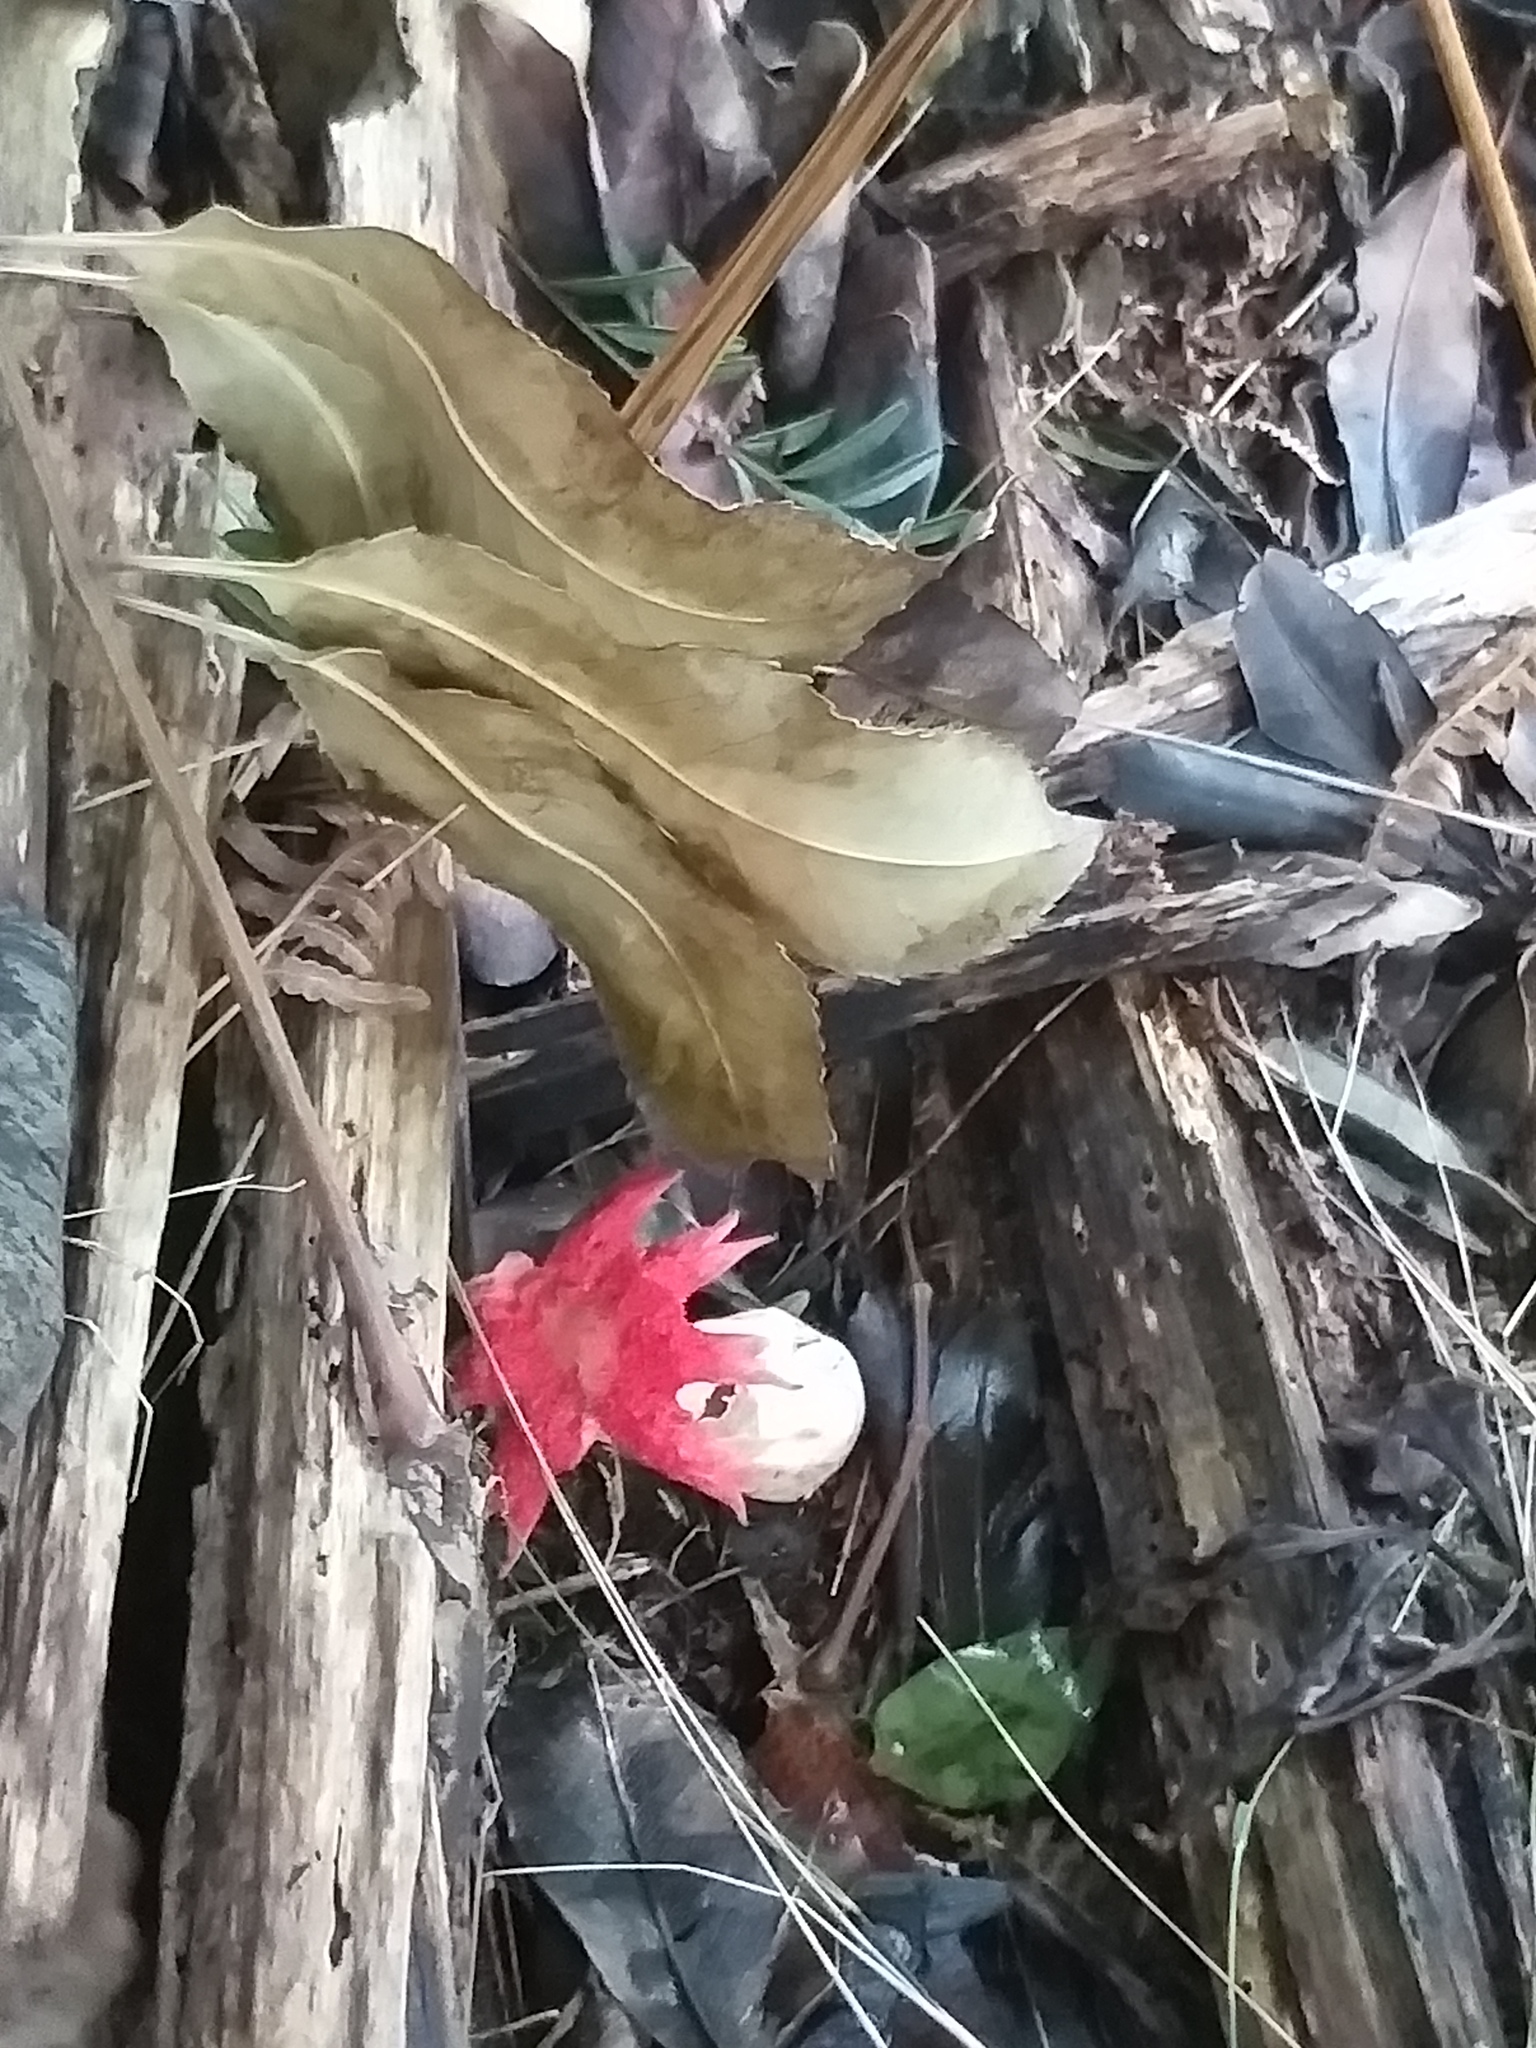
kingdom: Fungi
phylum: Basidiomycota
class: Agaricomycetes
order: Phallales
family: Phallaceae
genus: Aseroe
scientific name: Aseroe rubra
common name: Starfish fungus
